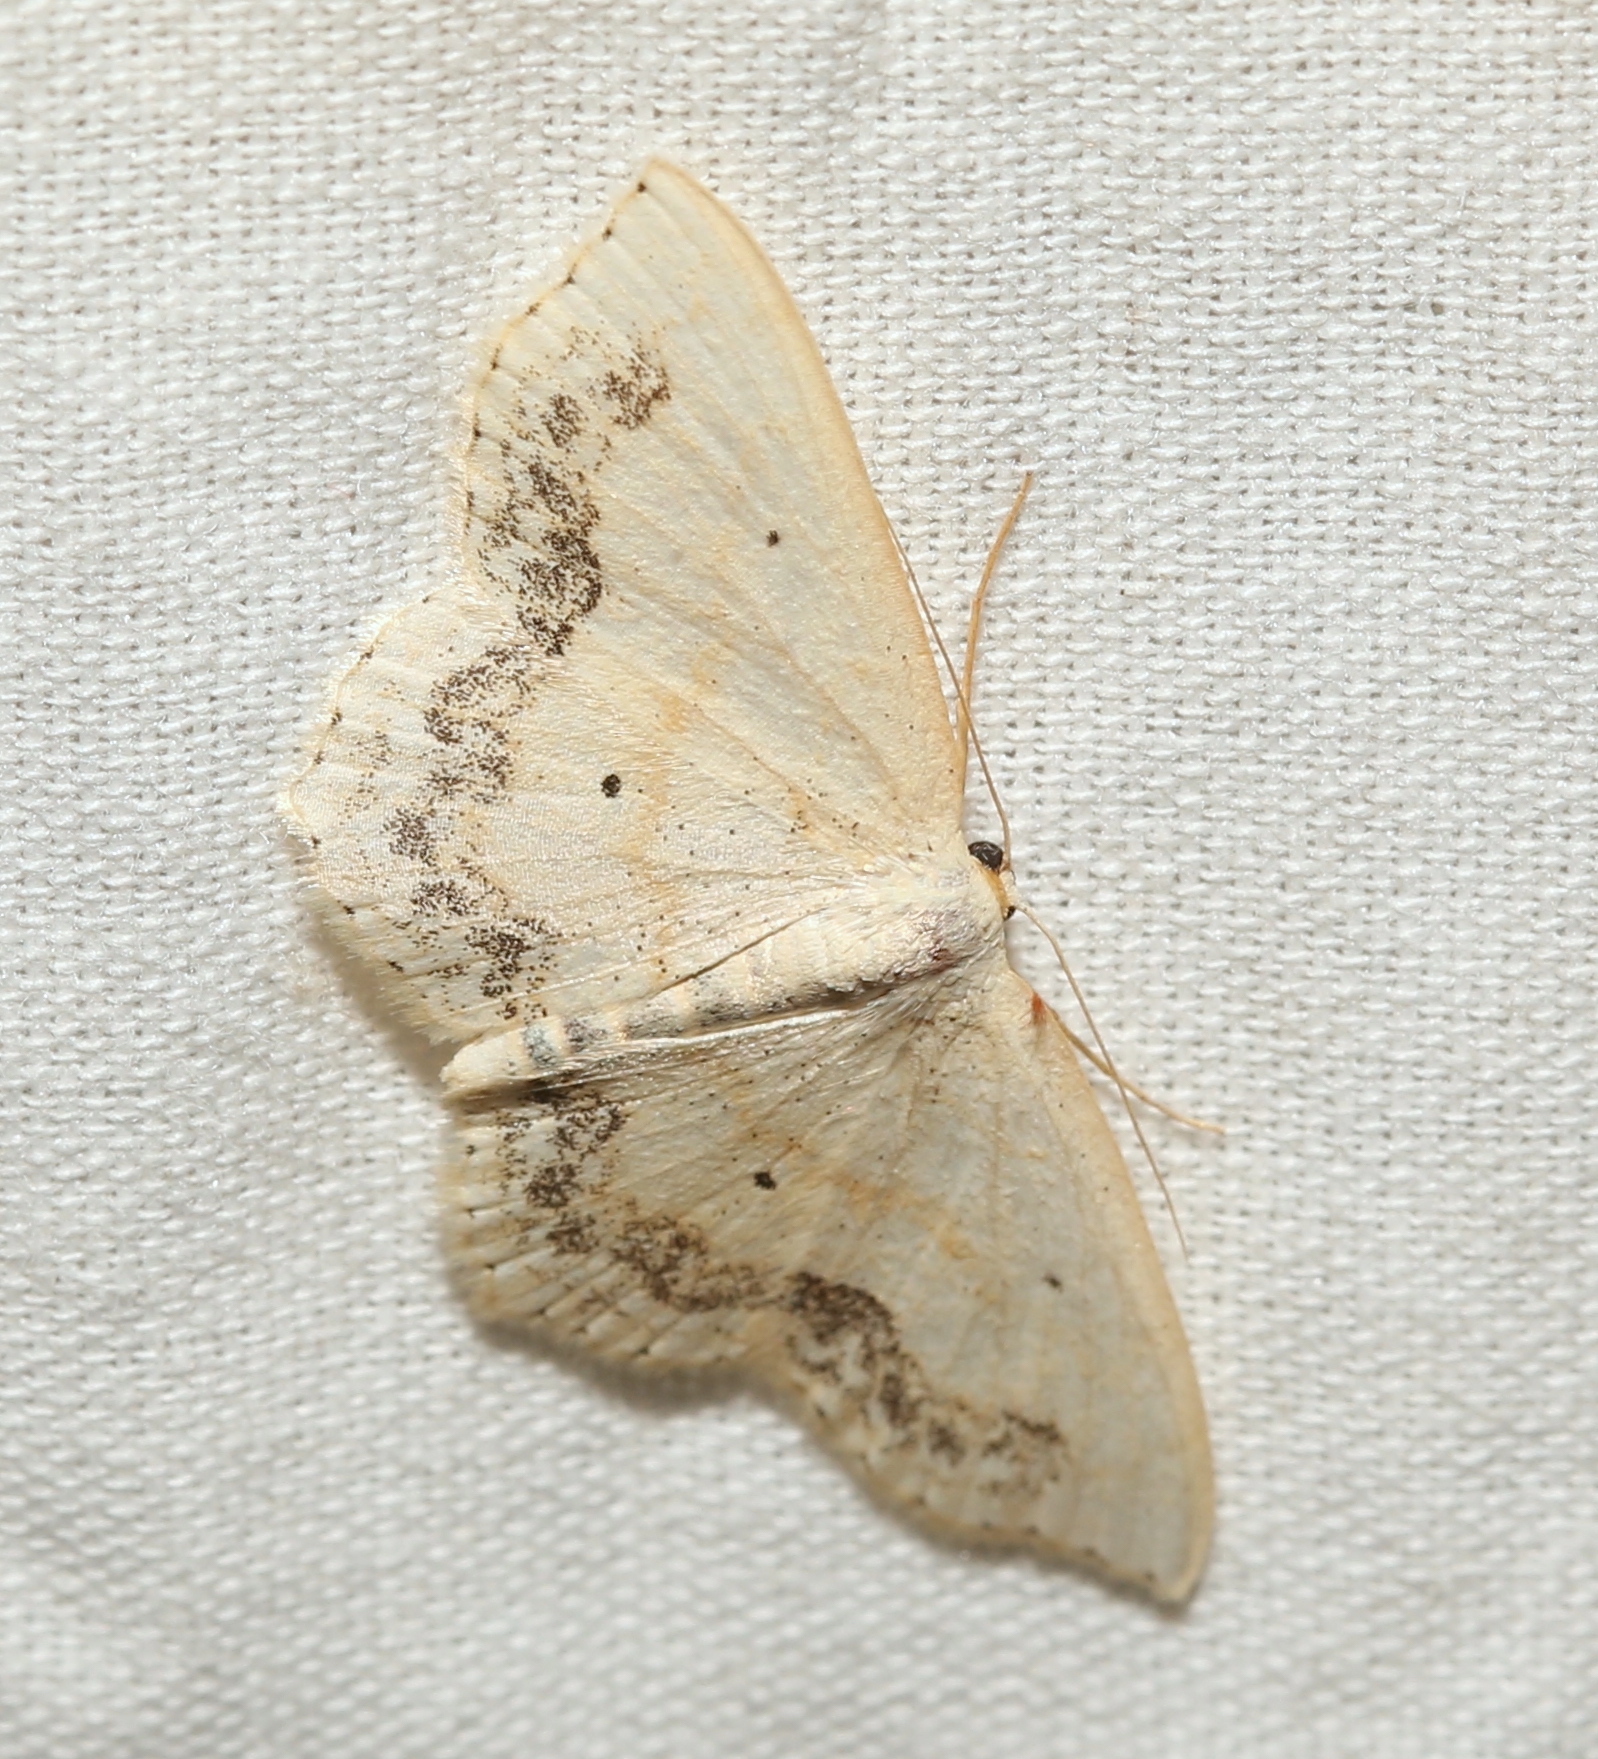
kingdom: Animalia
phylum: Arthropoda
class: Insecta
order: Lepidoptera
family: Geometridae
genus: Scopula
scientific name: Scopula limboundata
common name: Large lace border
